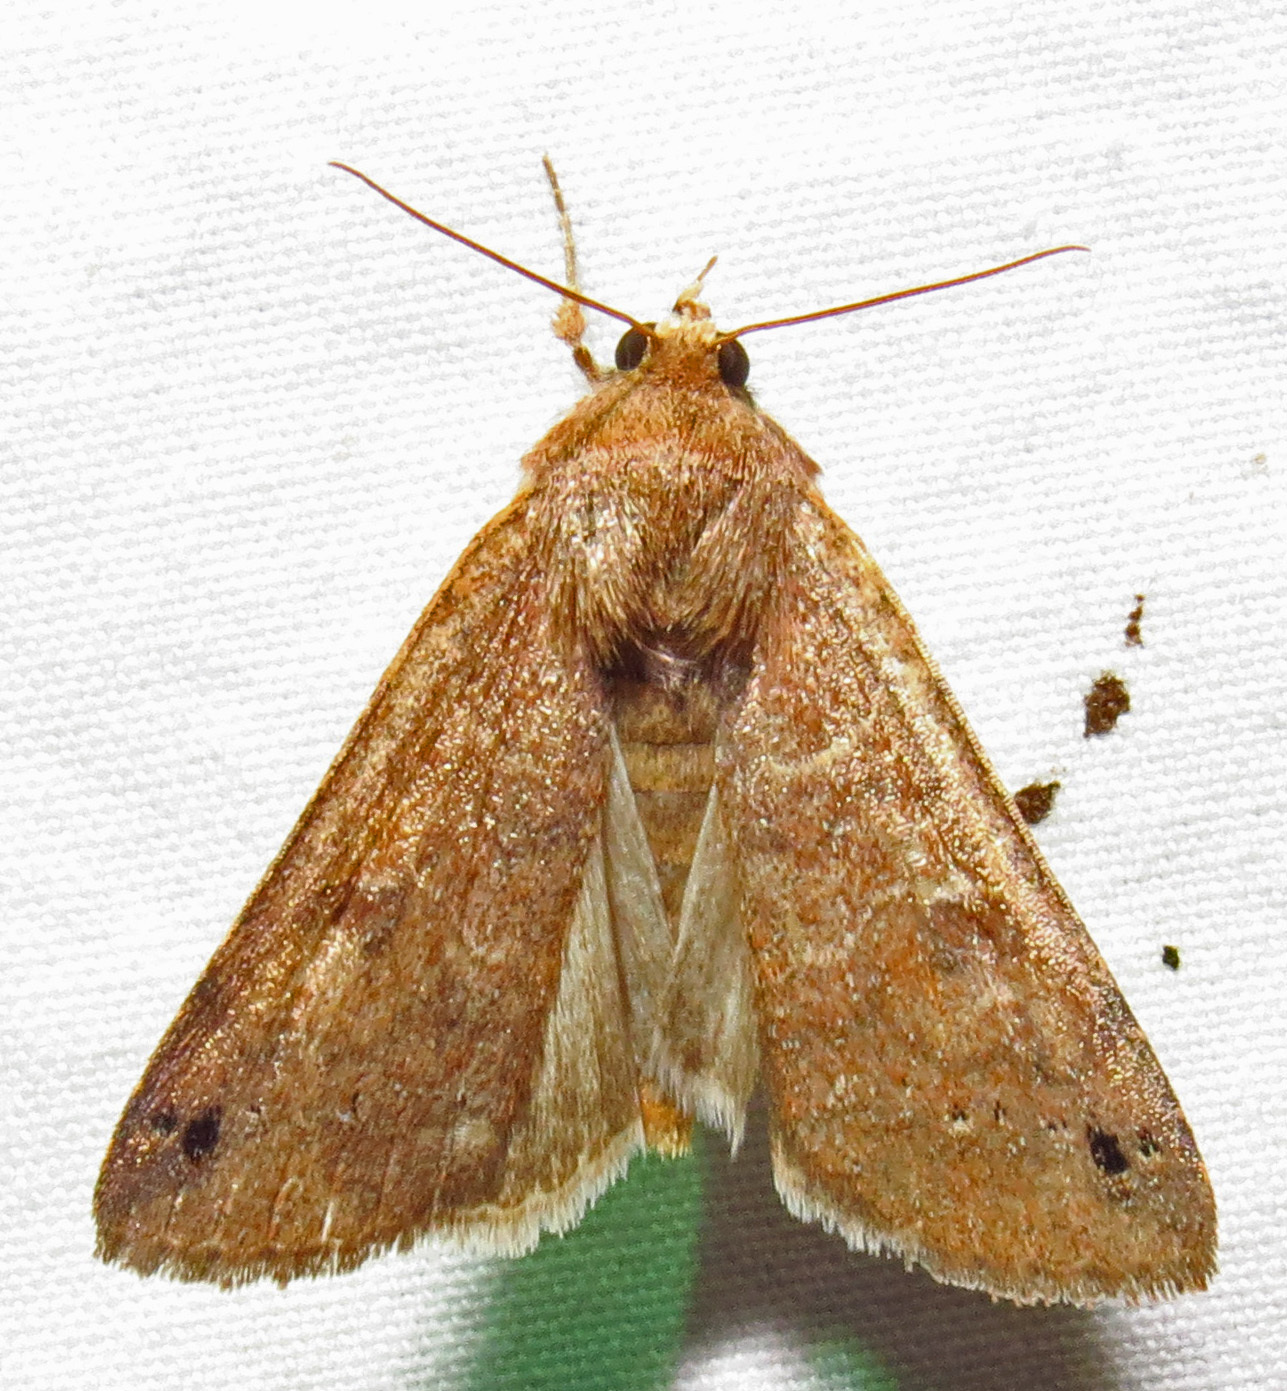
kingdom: Animalia
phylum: Arthropoda
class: Insecta
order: Lepidoptera
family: Erebidae
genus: Cissusa
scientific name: Cissusa spadix
